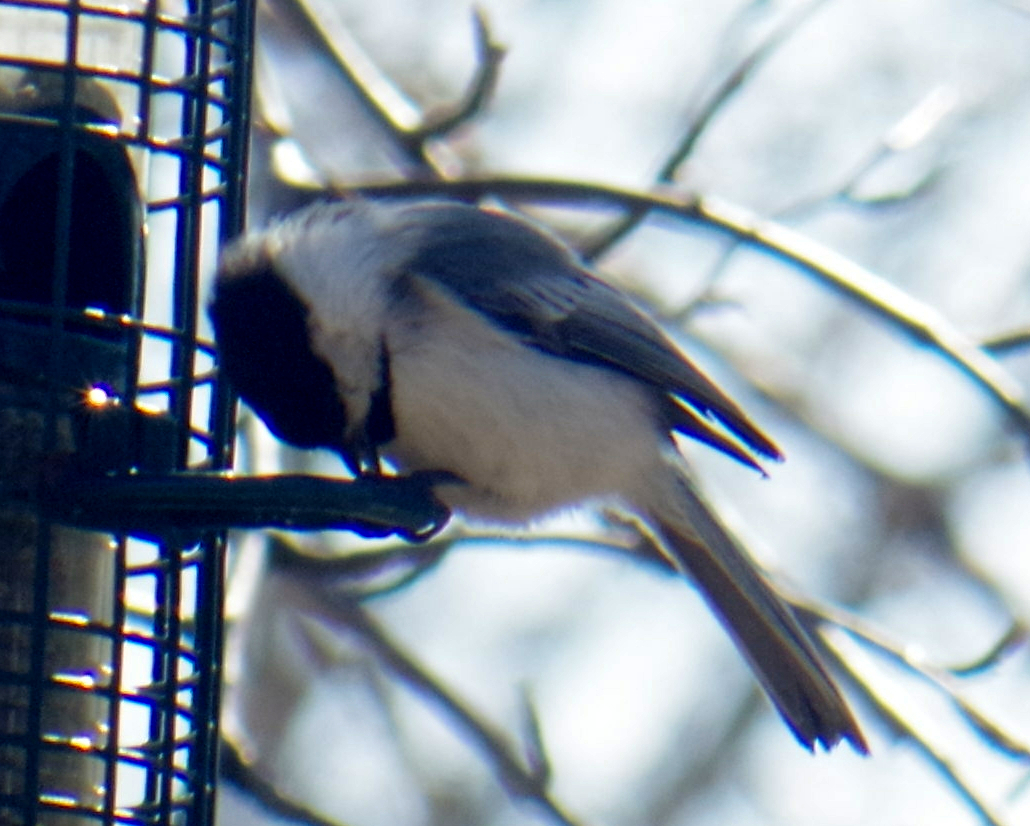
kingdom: Animalia
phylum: Chordata
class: Aves
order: Passeriformes
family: Paridae
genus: Poecile
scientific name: Poecile atricapillus
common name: Black-capped chickadee
